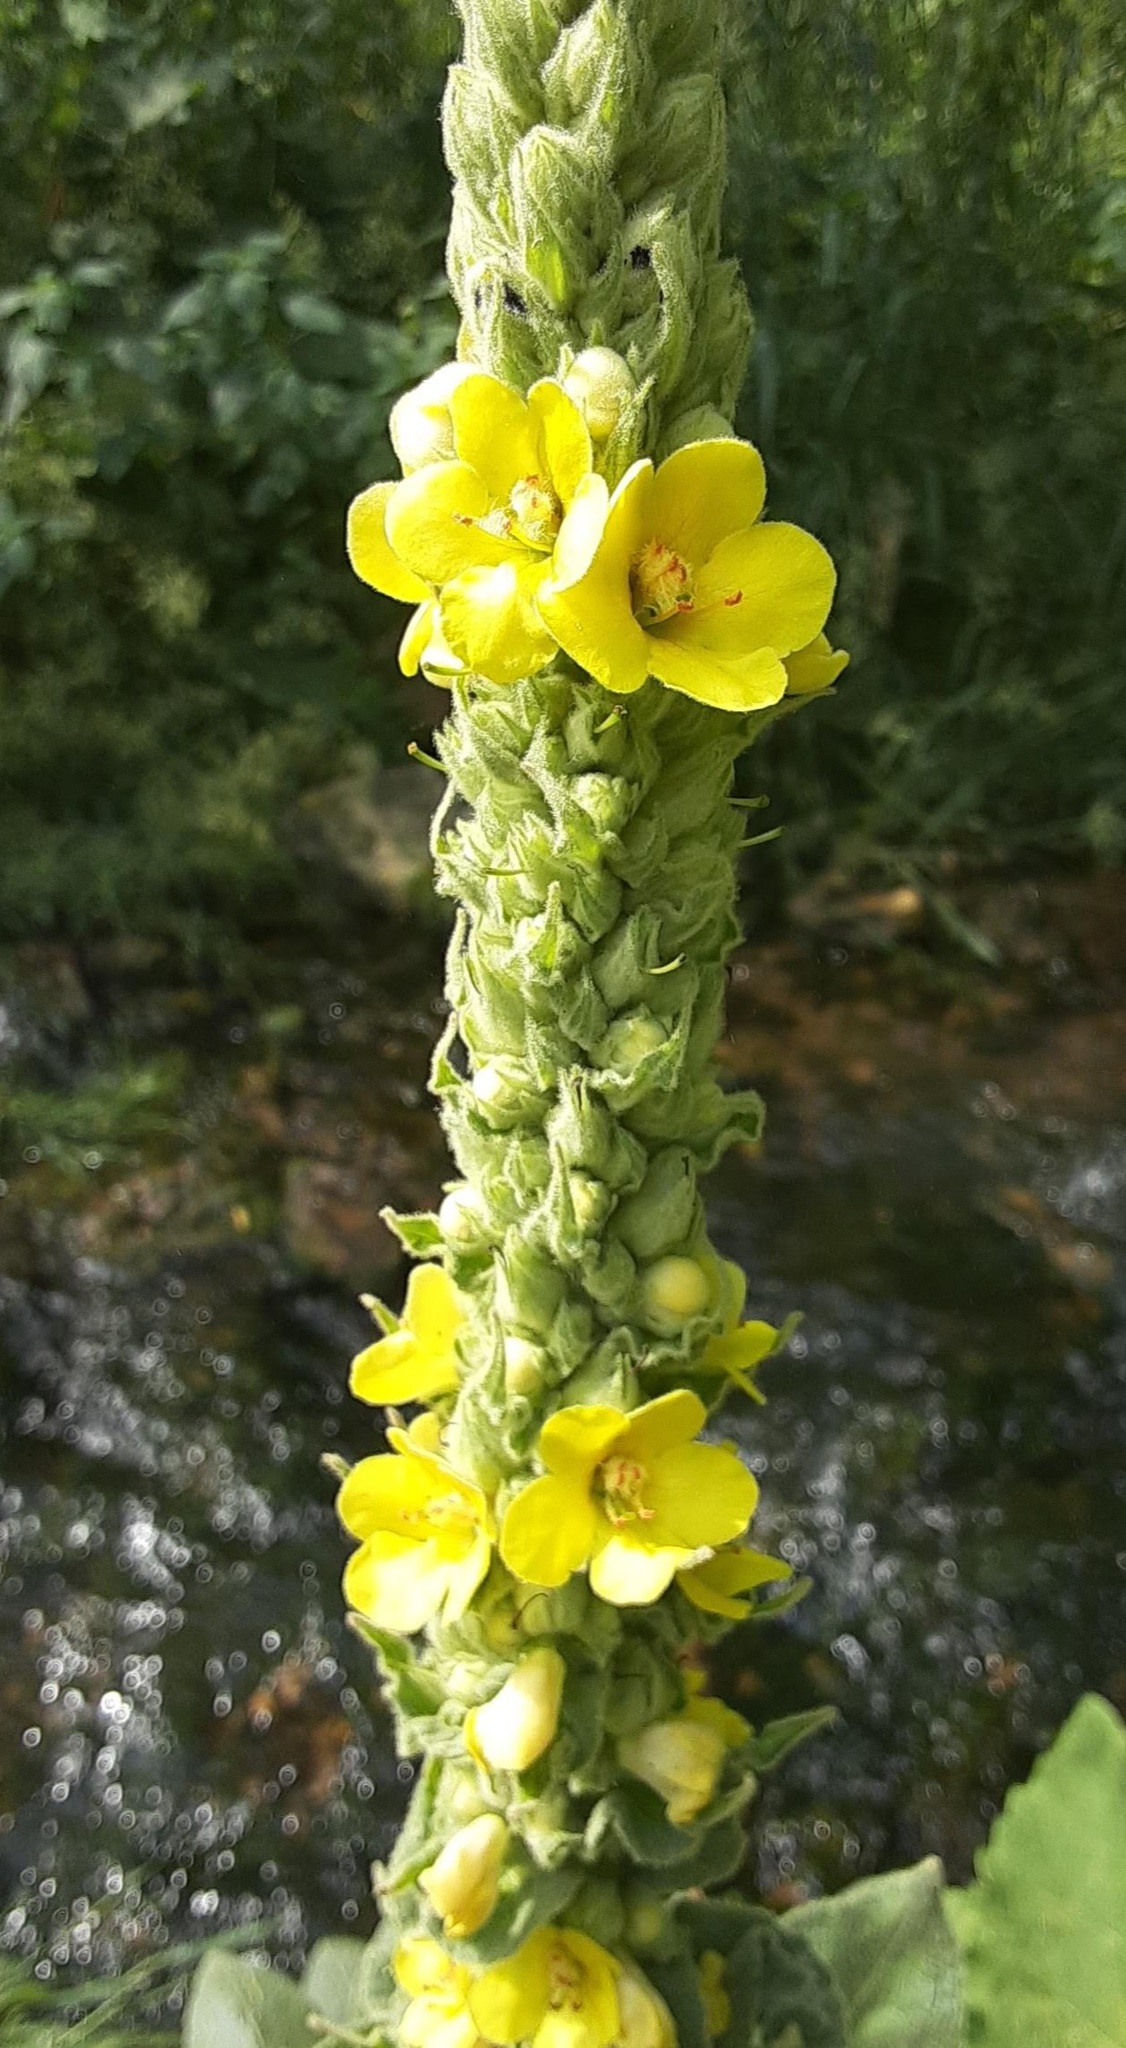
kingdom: Plantae
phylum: Tracheophyta
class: Magnoliopsida
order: Lamiales
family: Scrophulariaceae
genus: Verbascum
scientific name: Verbascum thapsus
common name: Common mullein
